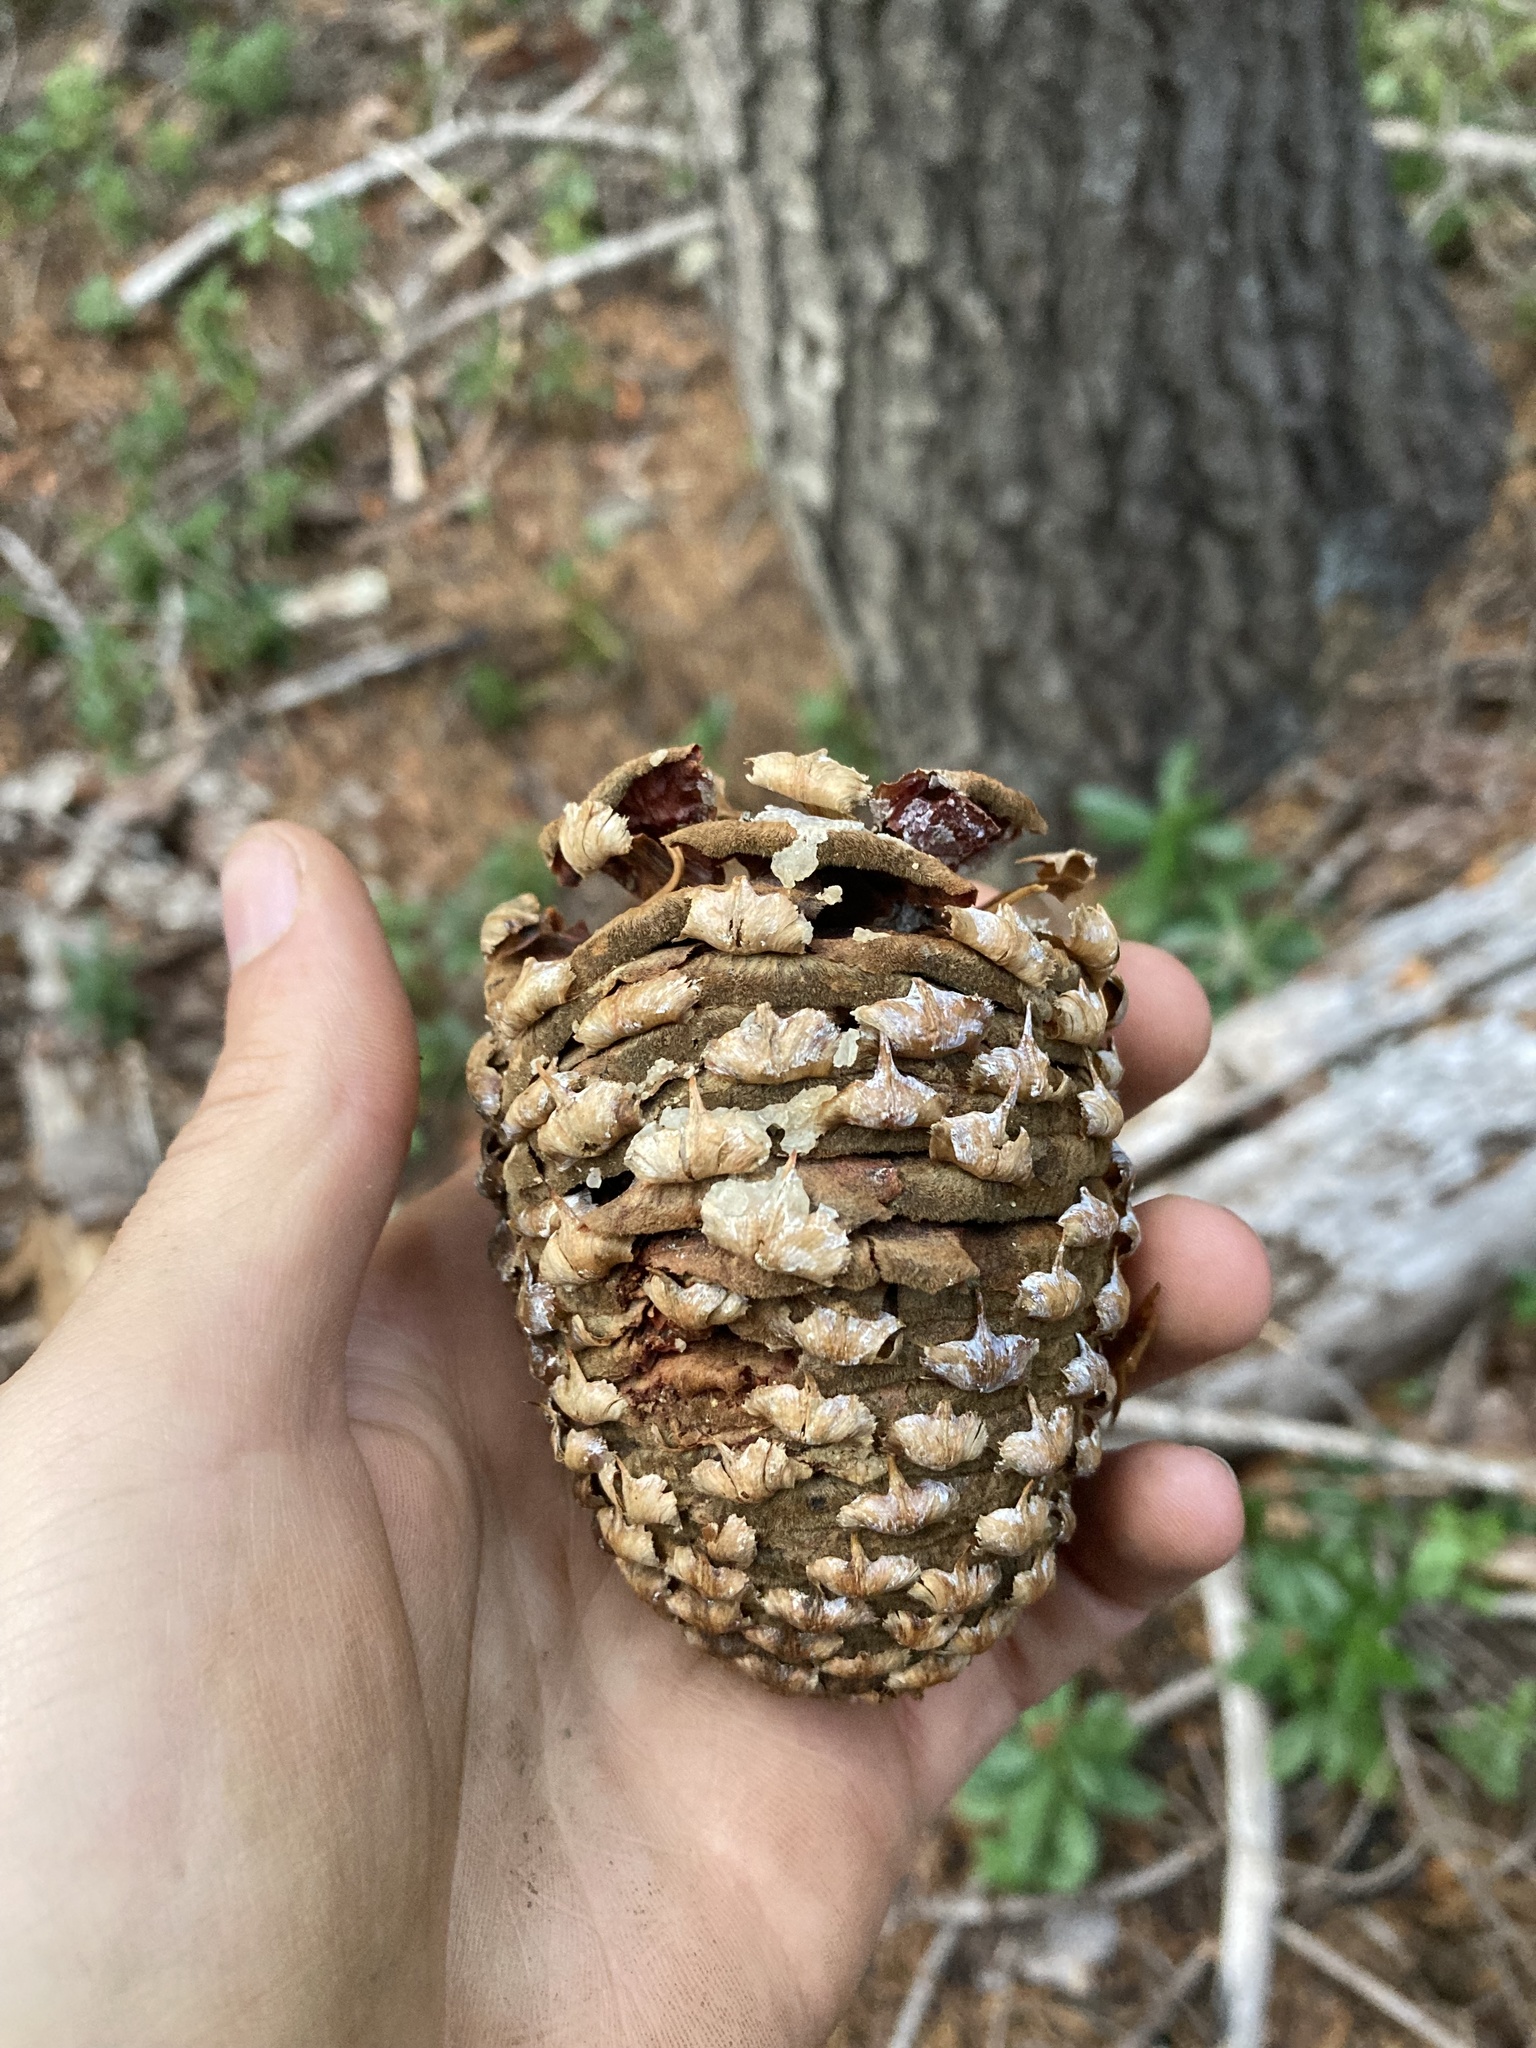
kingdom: Plantae
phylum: Tracheophyta
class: Pinopsida
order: Pinales
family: Pinaceae
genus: Abies
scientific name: Abies magnifica bis
